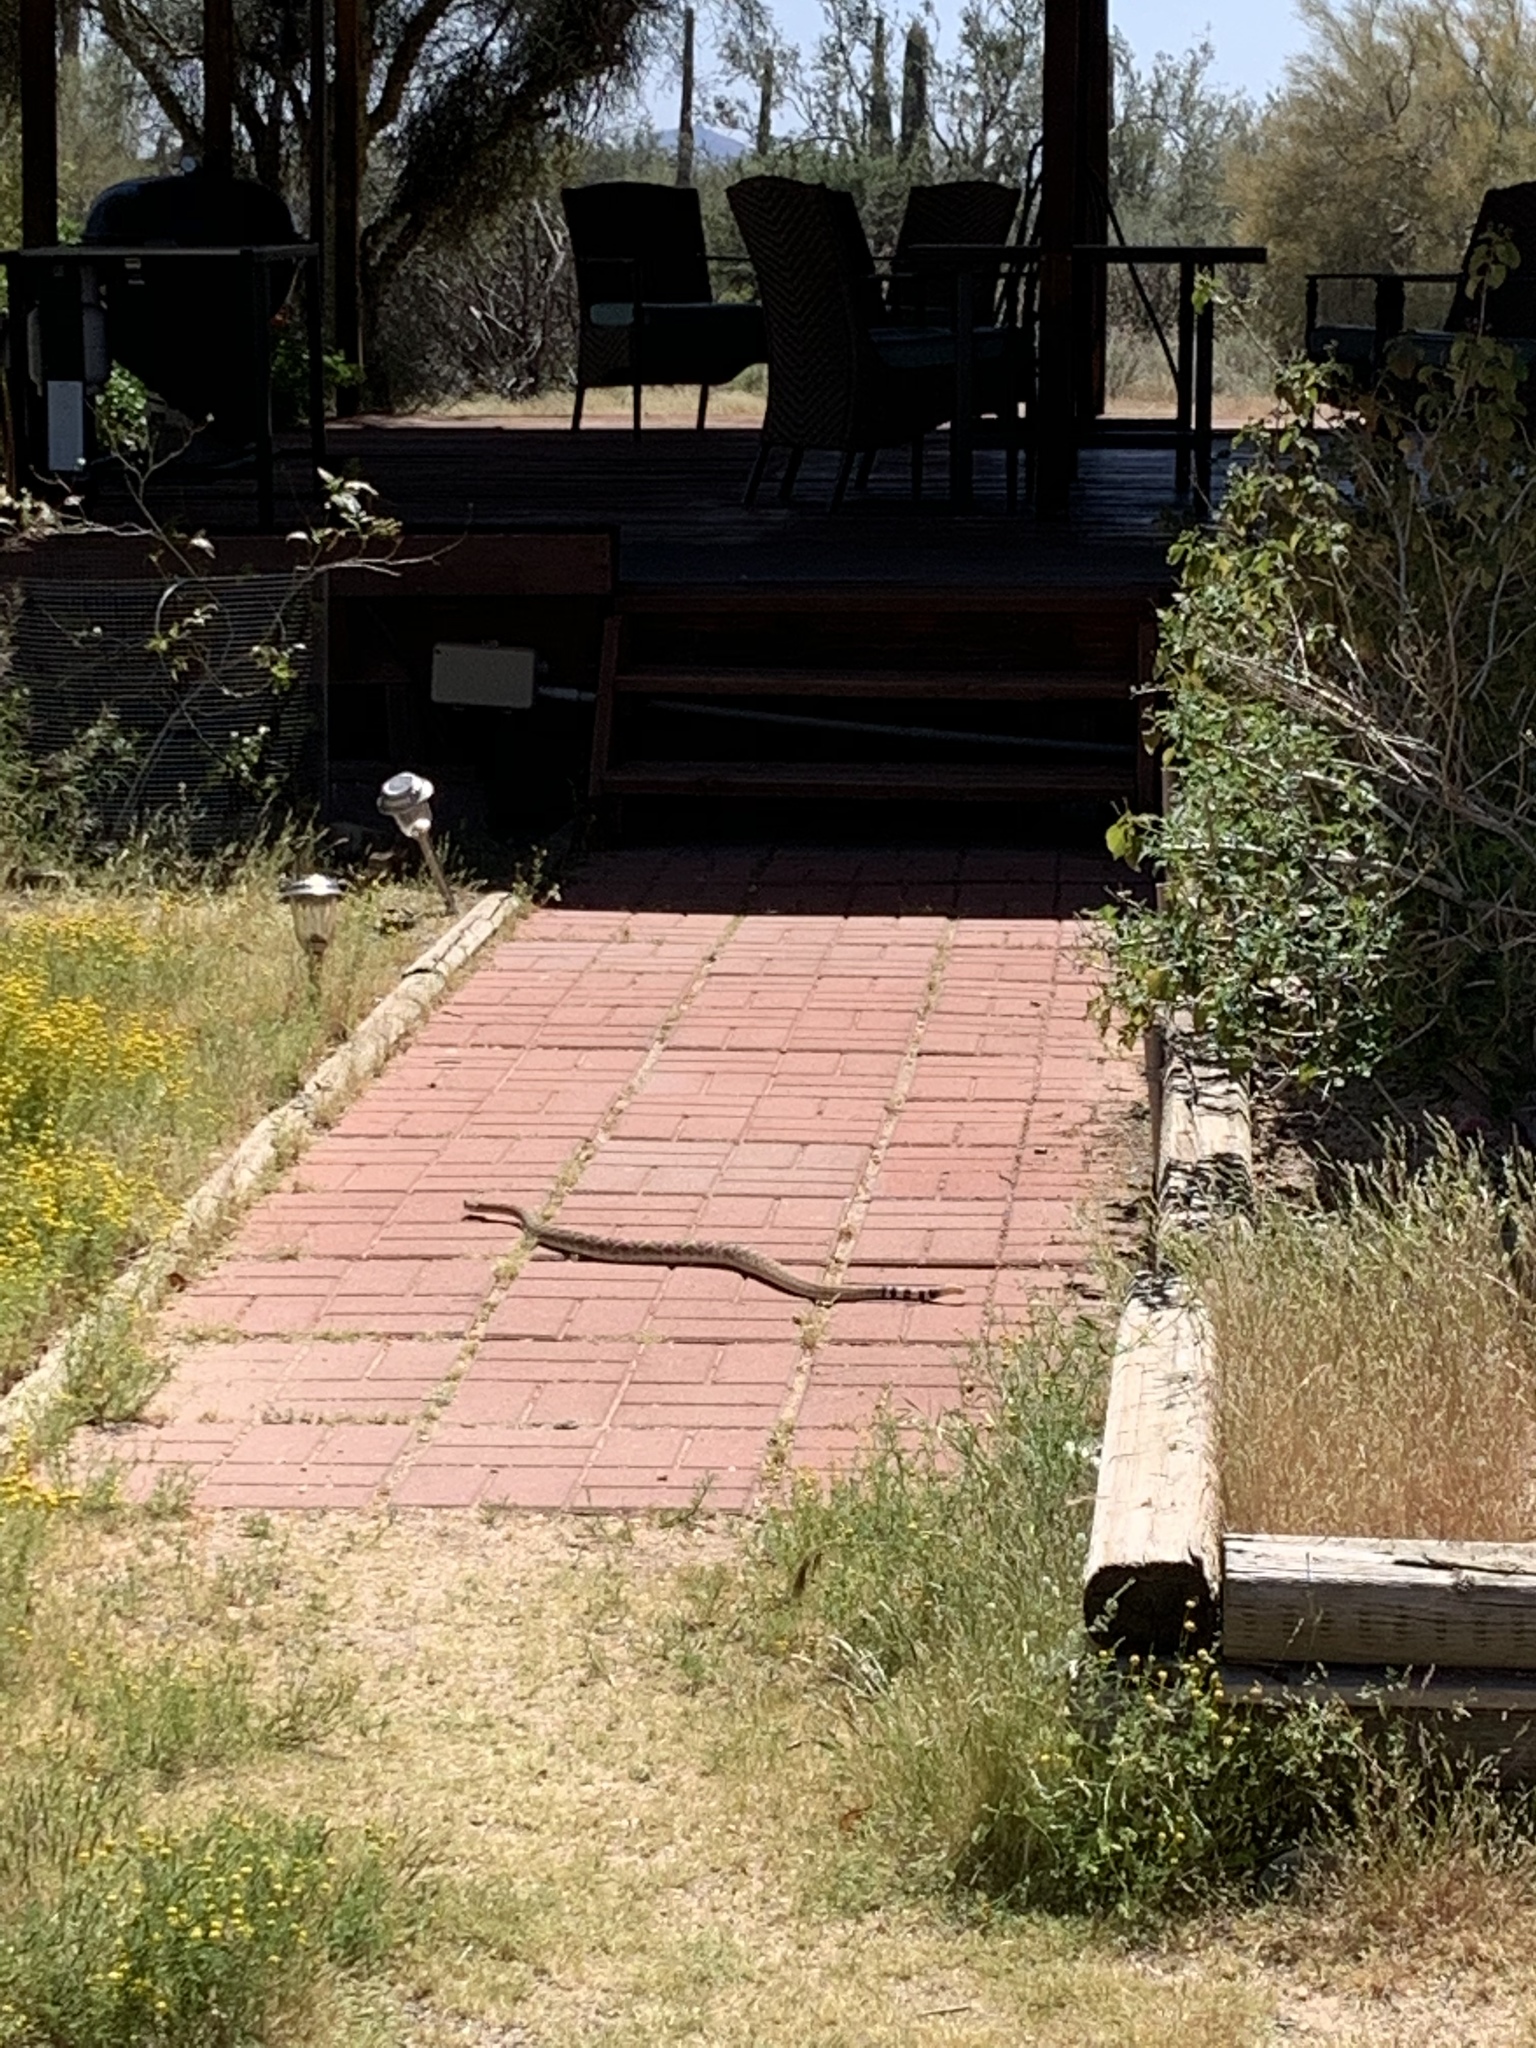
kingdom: Animalia
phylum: Chordata
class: Squamata
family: Viperidae
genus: Crotalus
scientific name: Crotalus atrox
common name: Western diamond-backed rattlesnake
